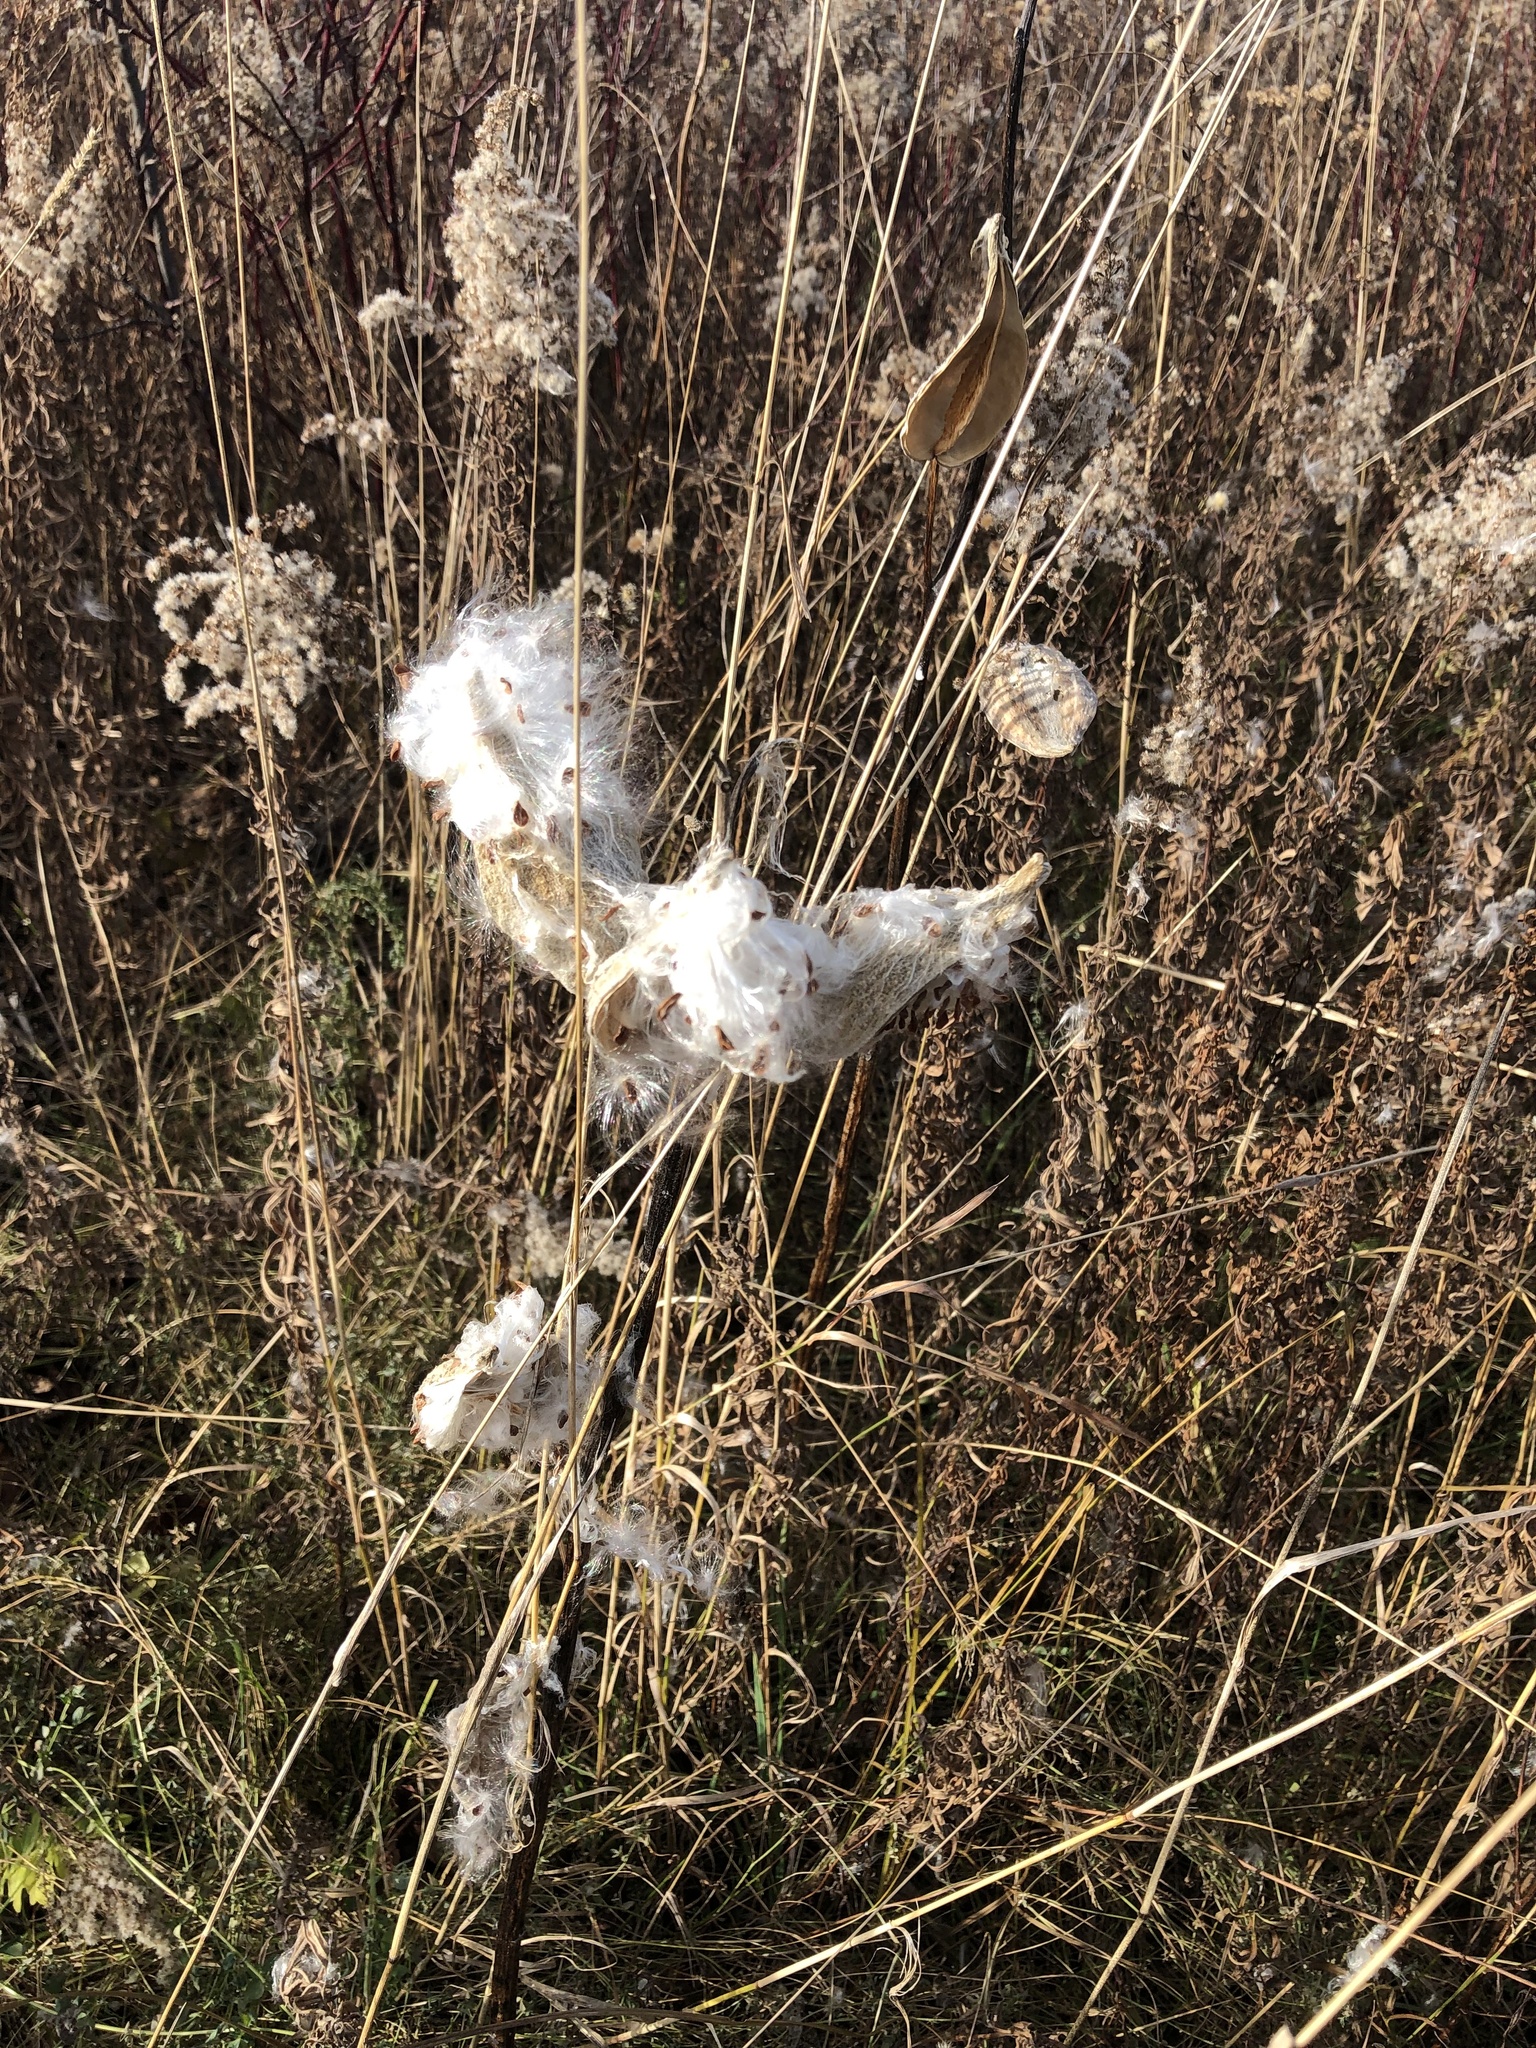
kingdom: Plantae
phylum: Tracheophyta
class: Magnoliopsida
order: Gentianales
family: Apocynaceae
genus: Asclepias
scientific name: Asclepias syriaca
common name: Common milkweed
